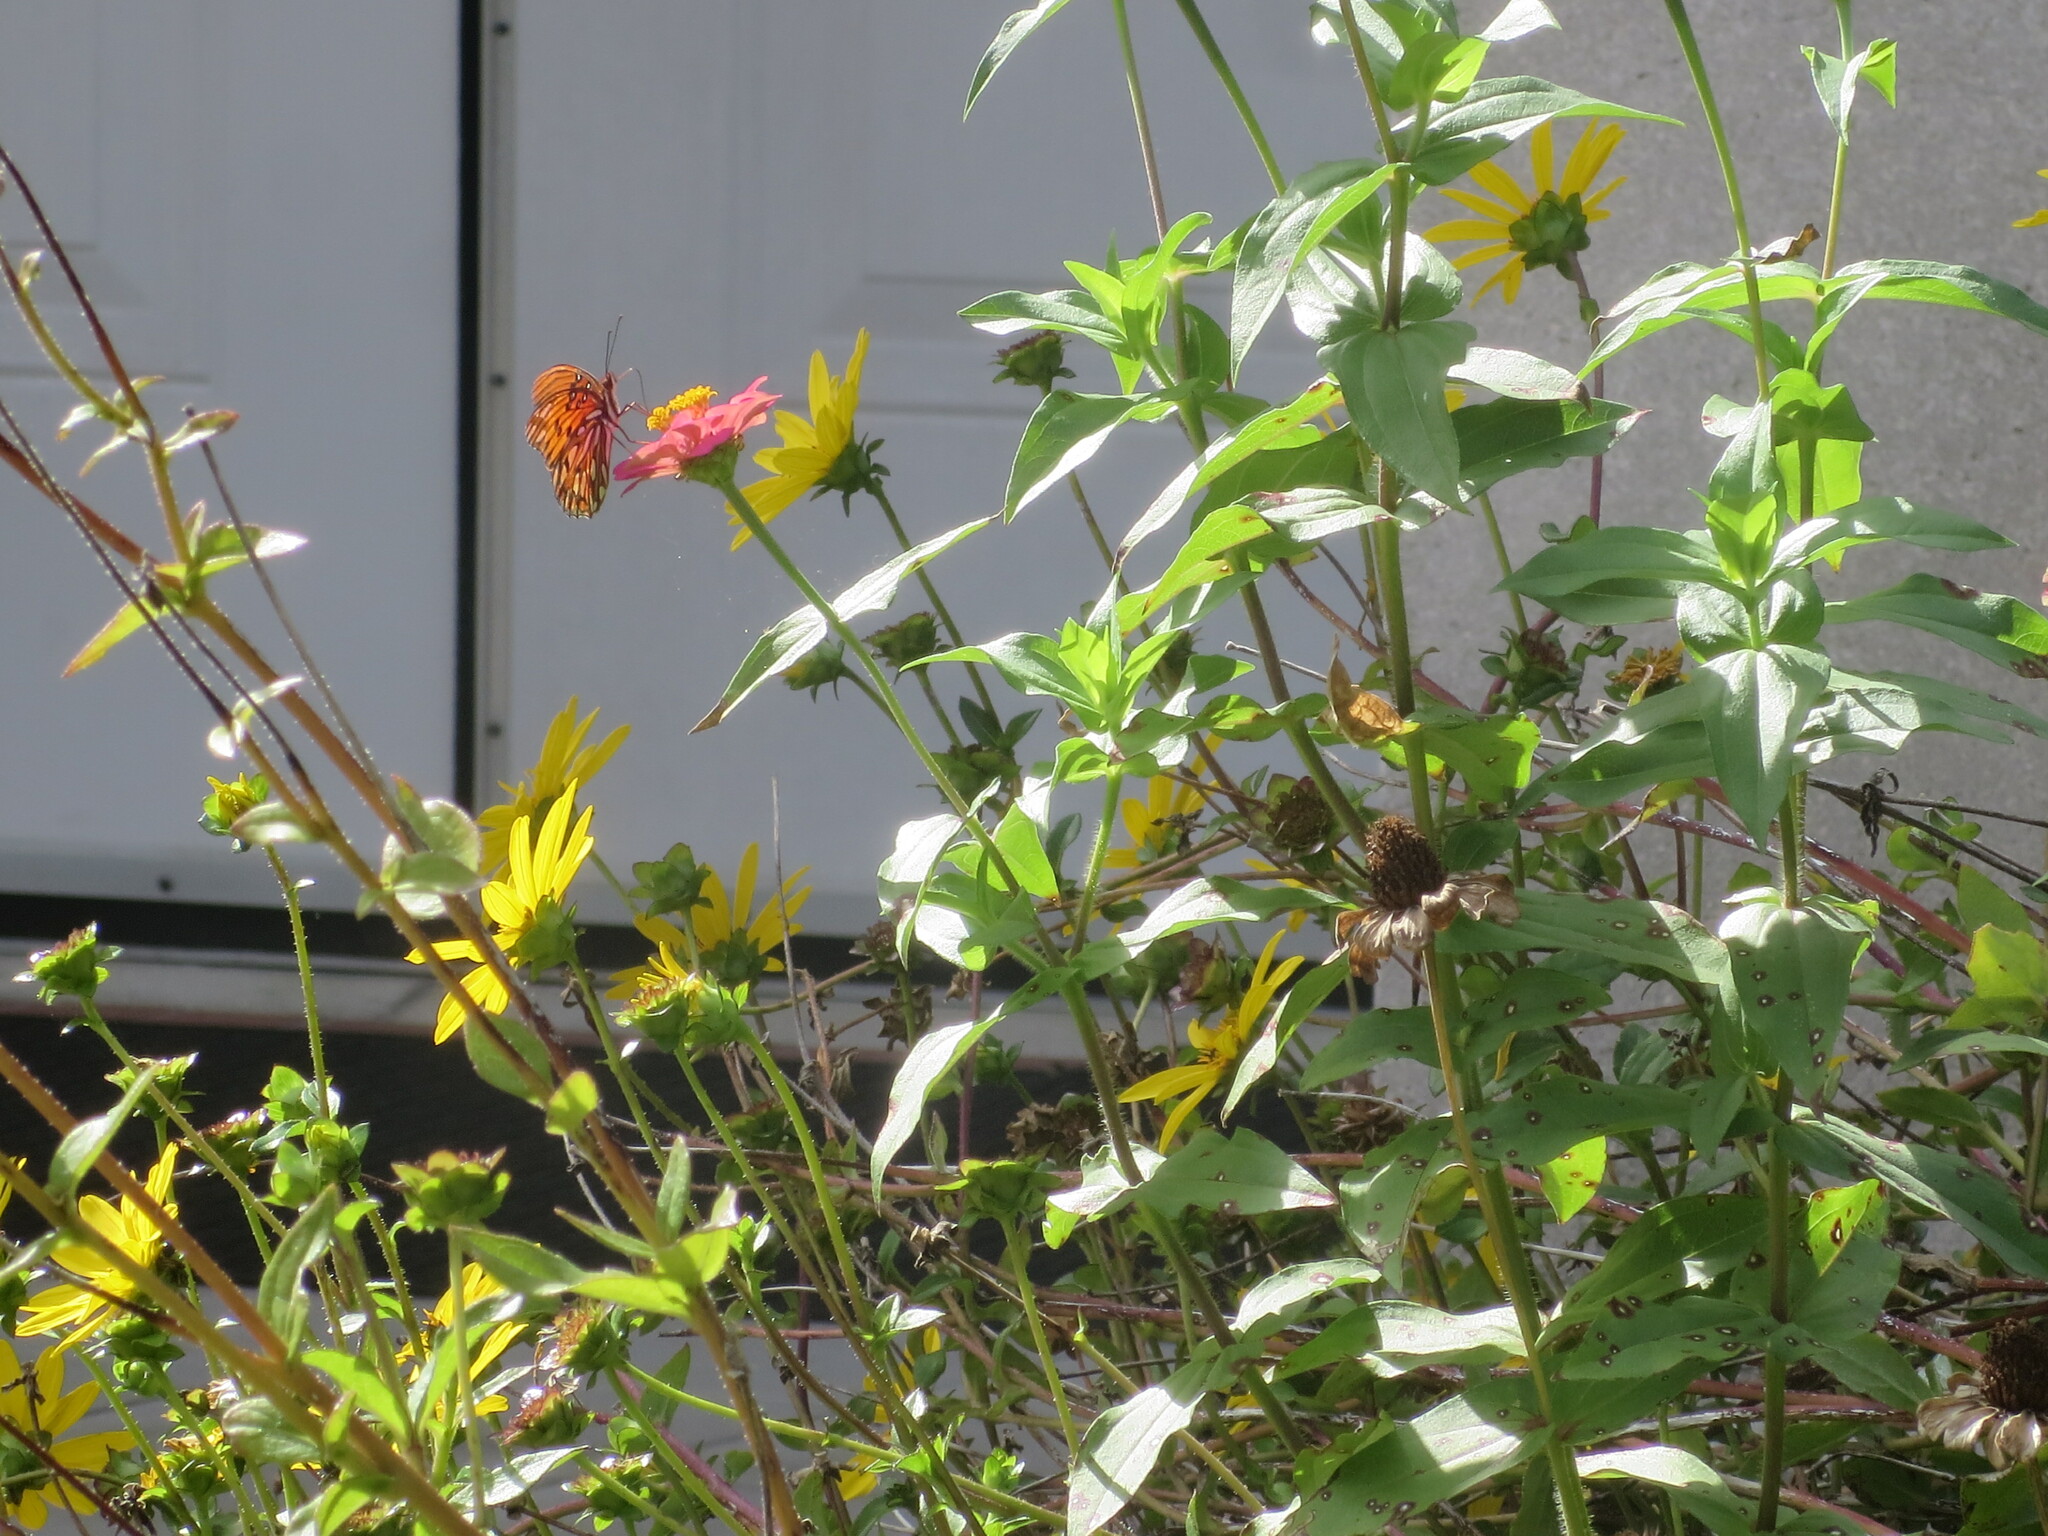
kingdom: Animalia
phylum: Arthropoda
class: Insecta
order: Lepidoptera
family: Nymphalidae
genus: Dione
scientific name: Dione vanillae
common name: Gulf fritillary
